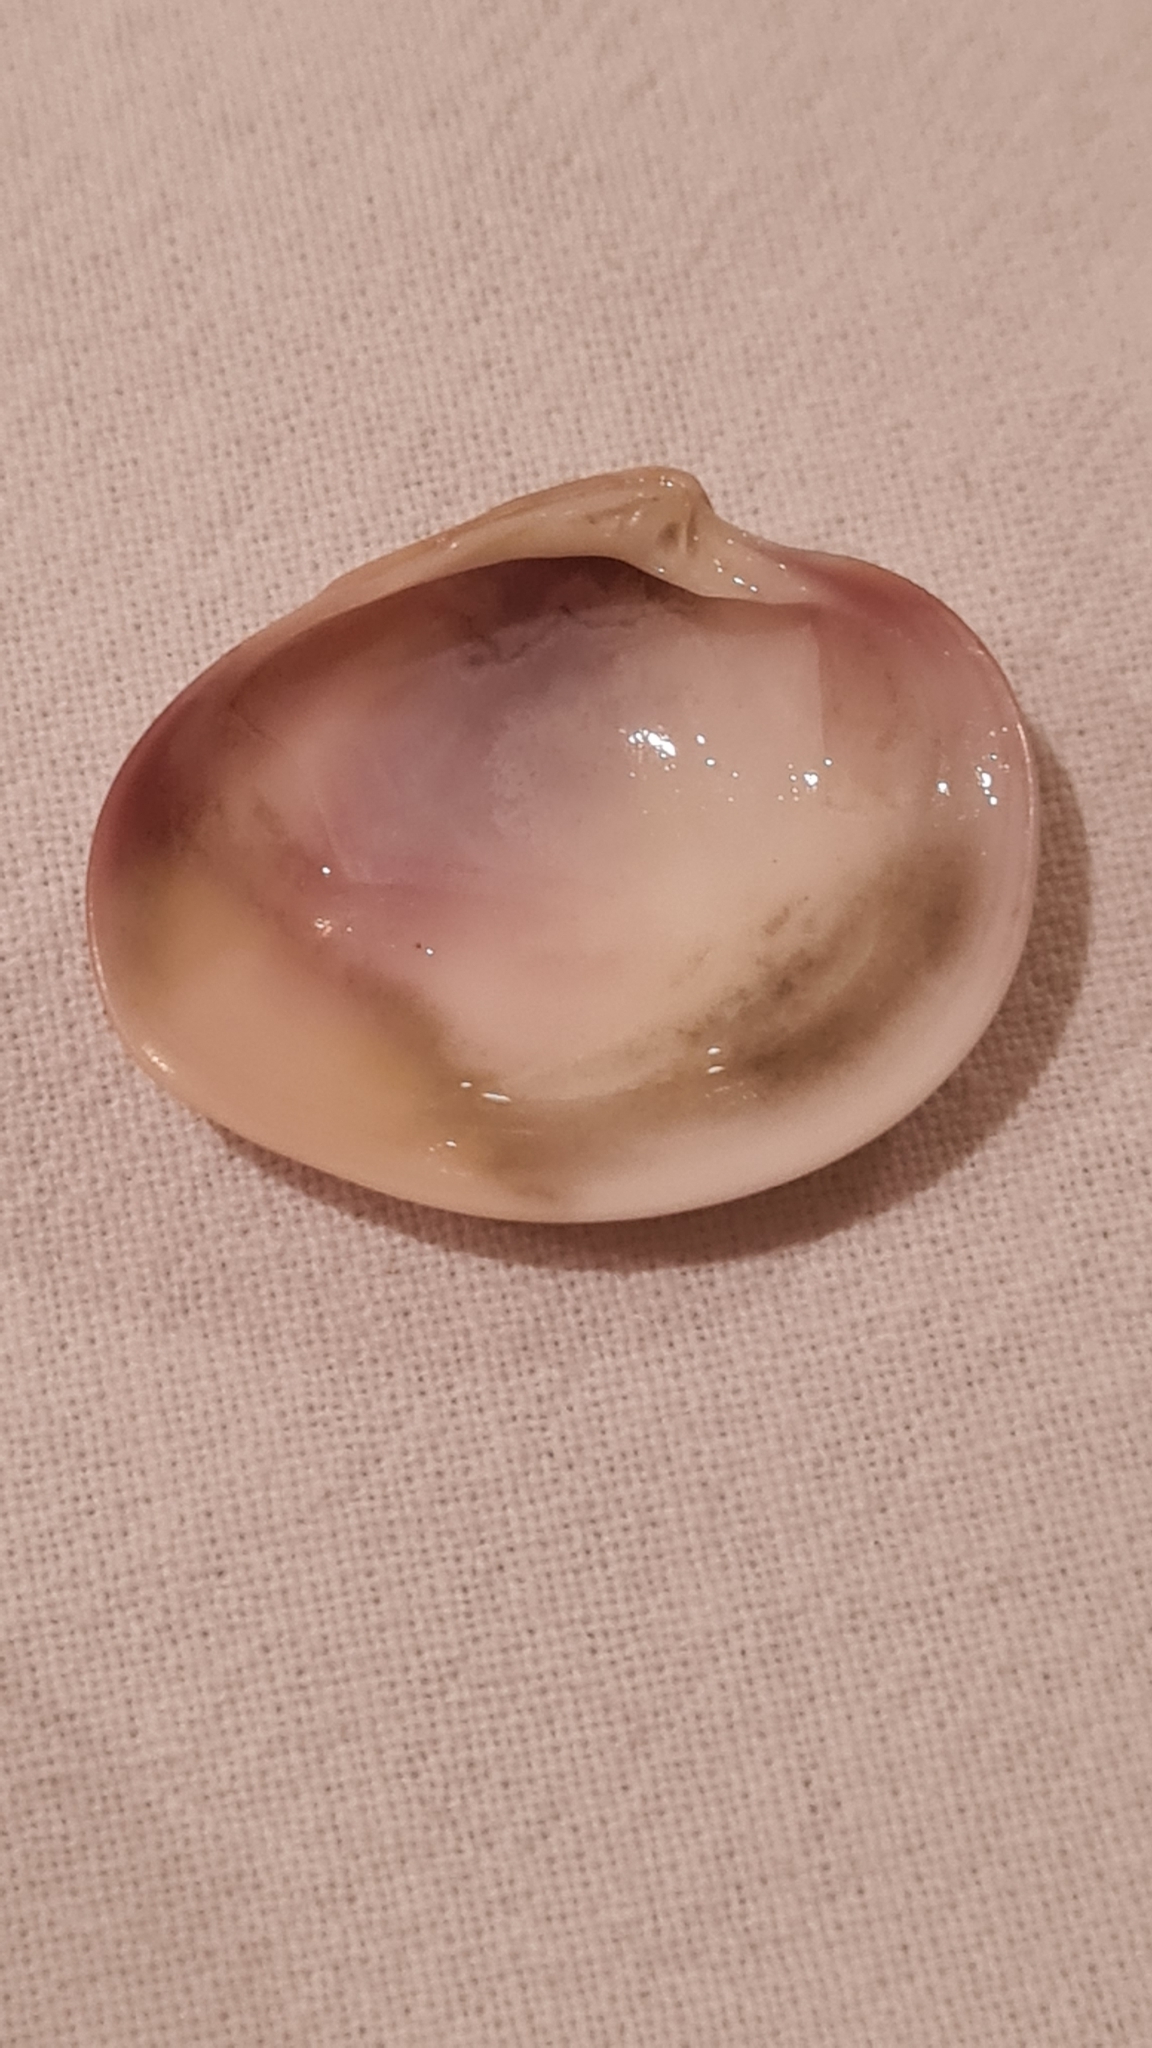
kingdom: Animalia
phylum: Mollusca
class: Bivalvia
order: Venerida
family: Veneridae
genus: Eucallista
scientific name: Eucallista purpurata
